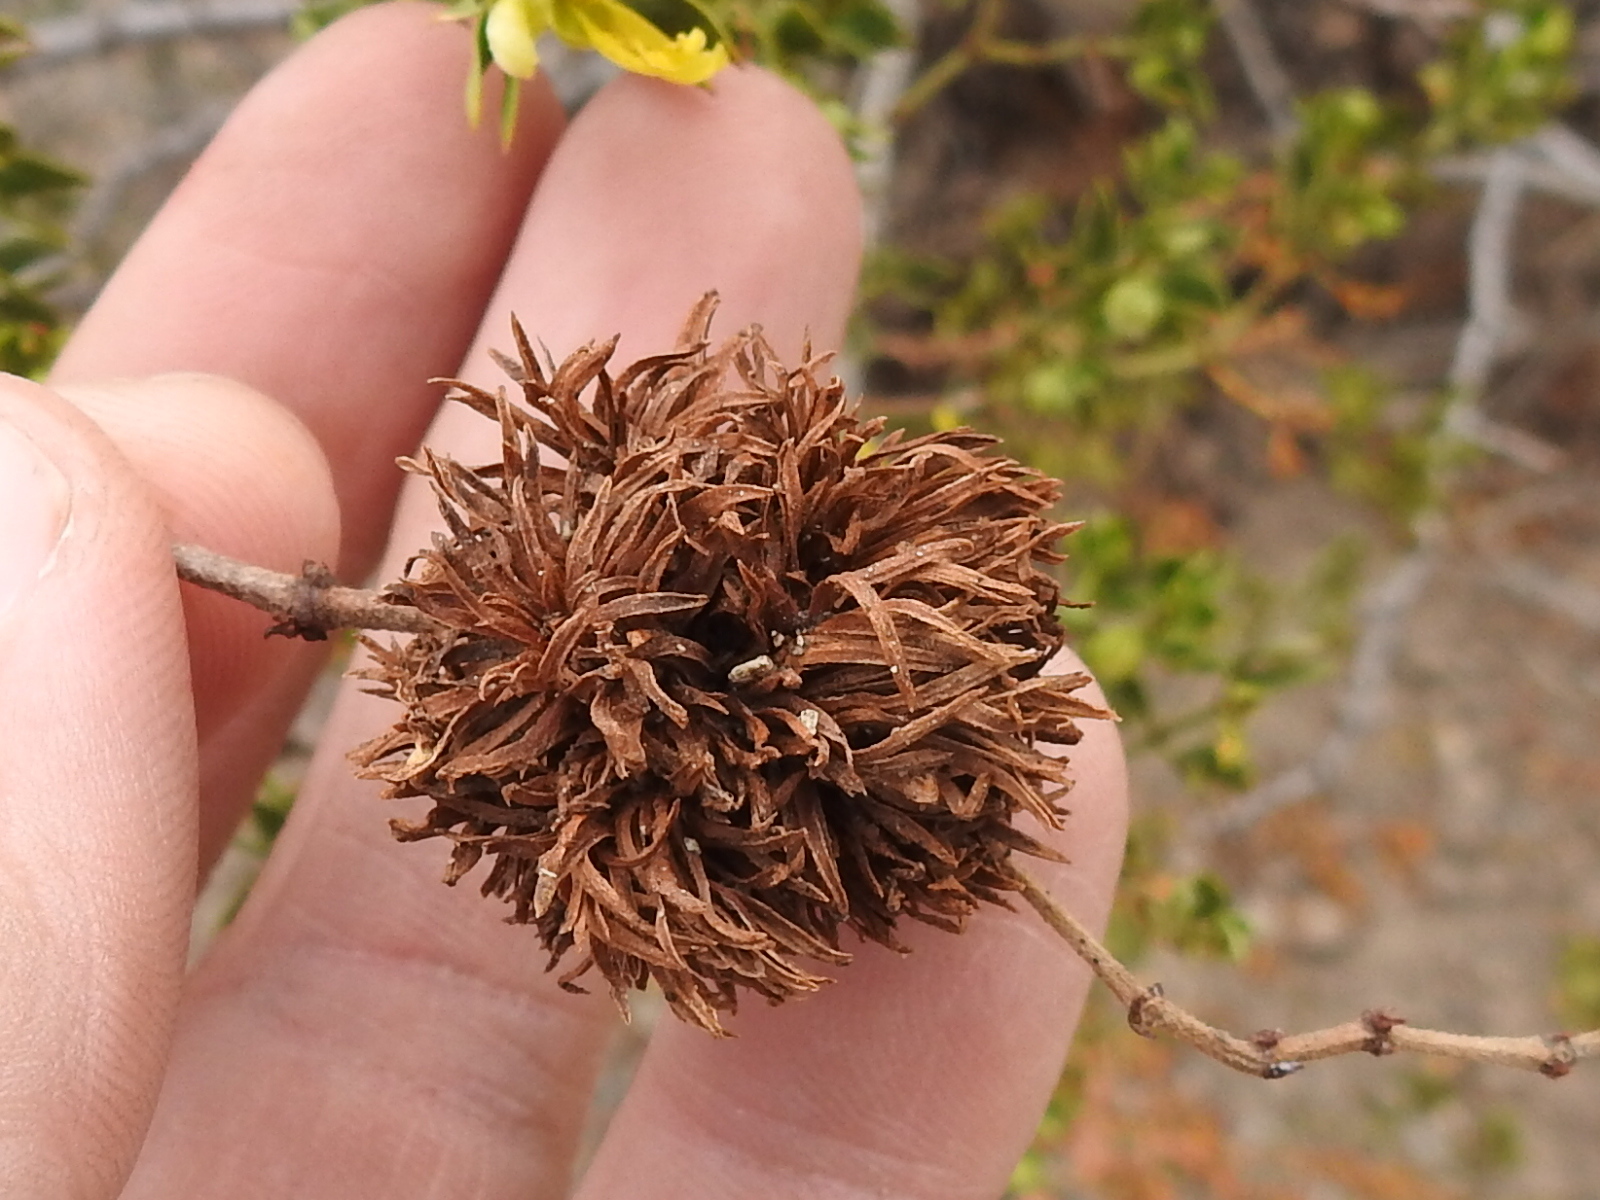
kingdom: Animalia
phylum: Arthropoda
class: Insecta
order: Diptera
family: Cecidomyiidae
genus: Asphondylia
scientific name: Asphondylia auripila
